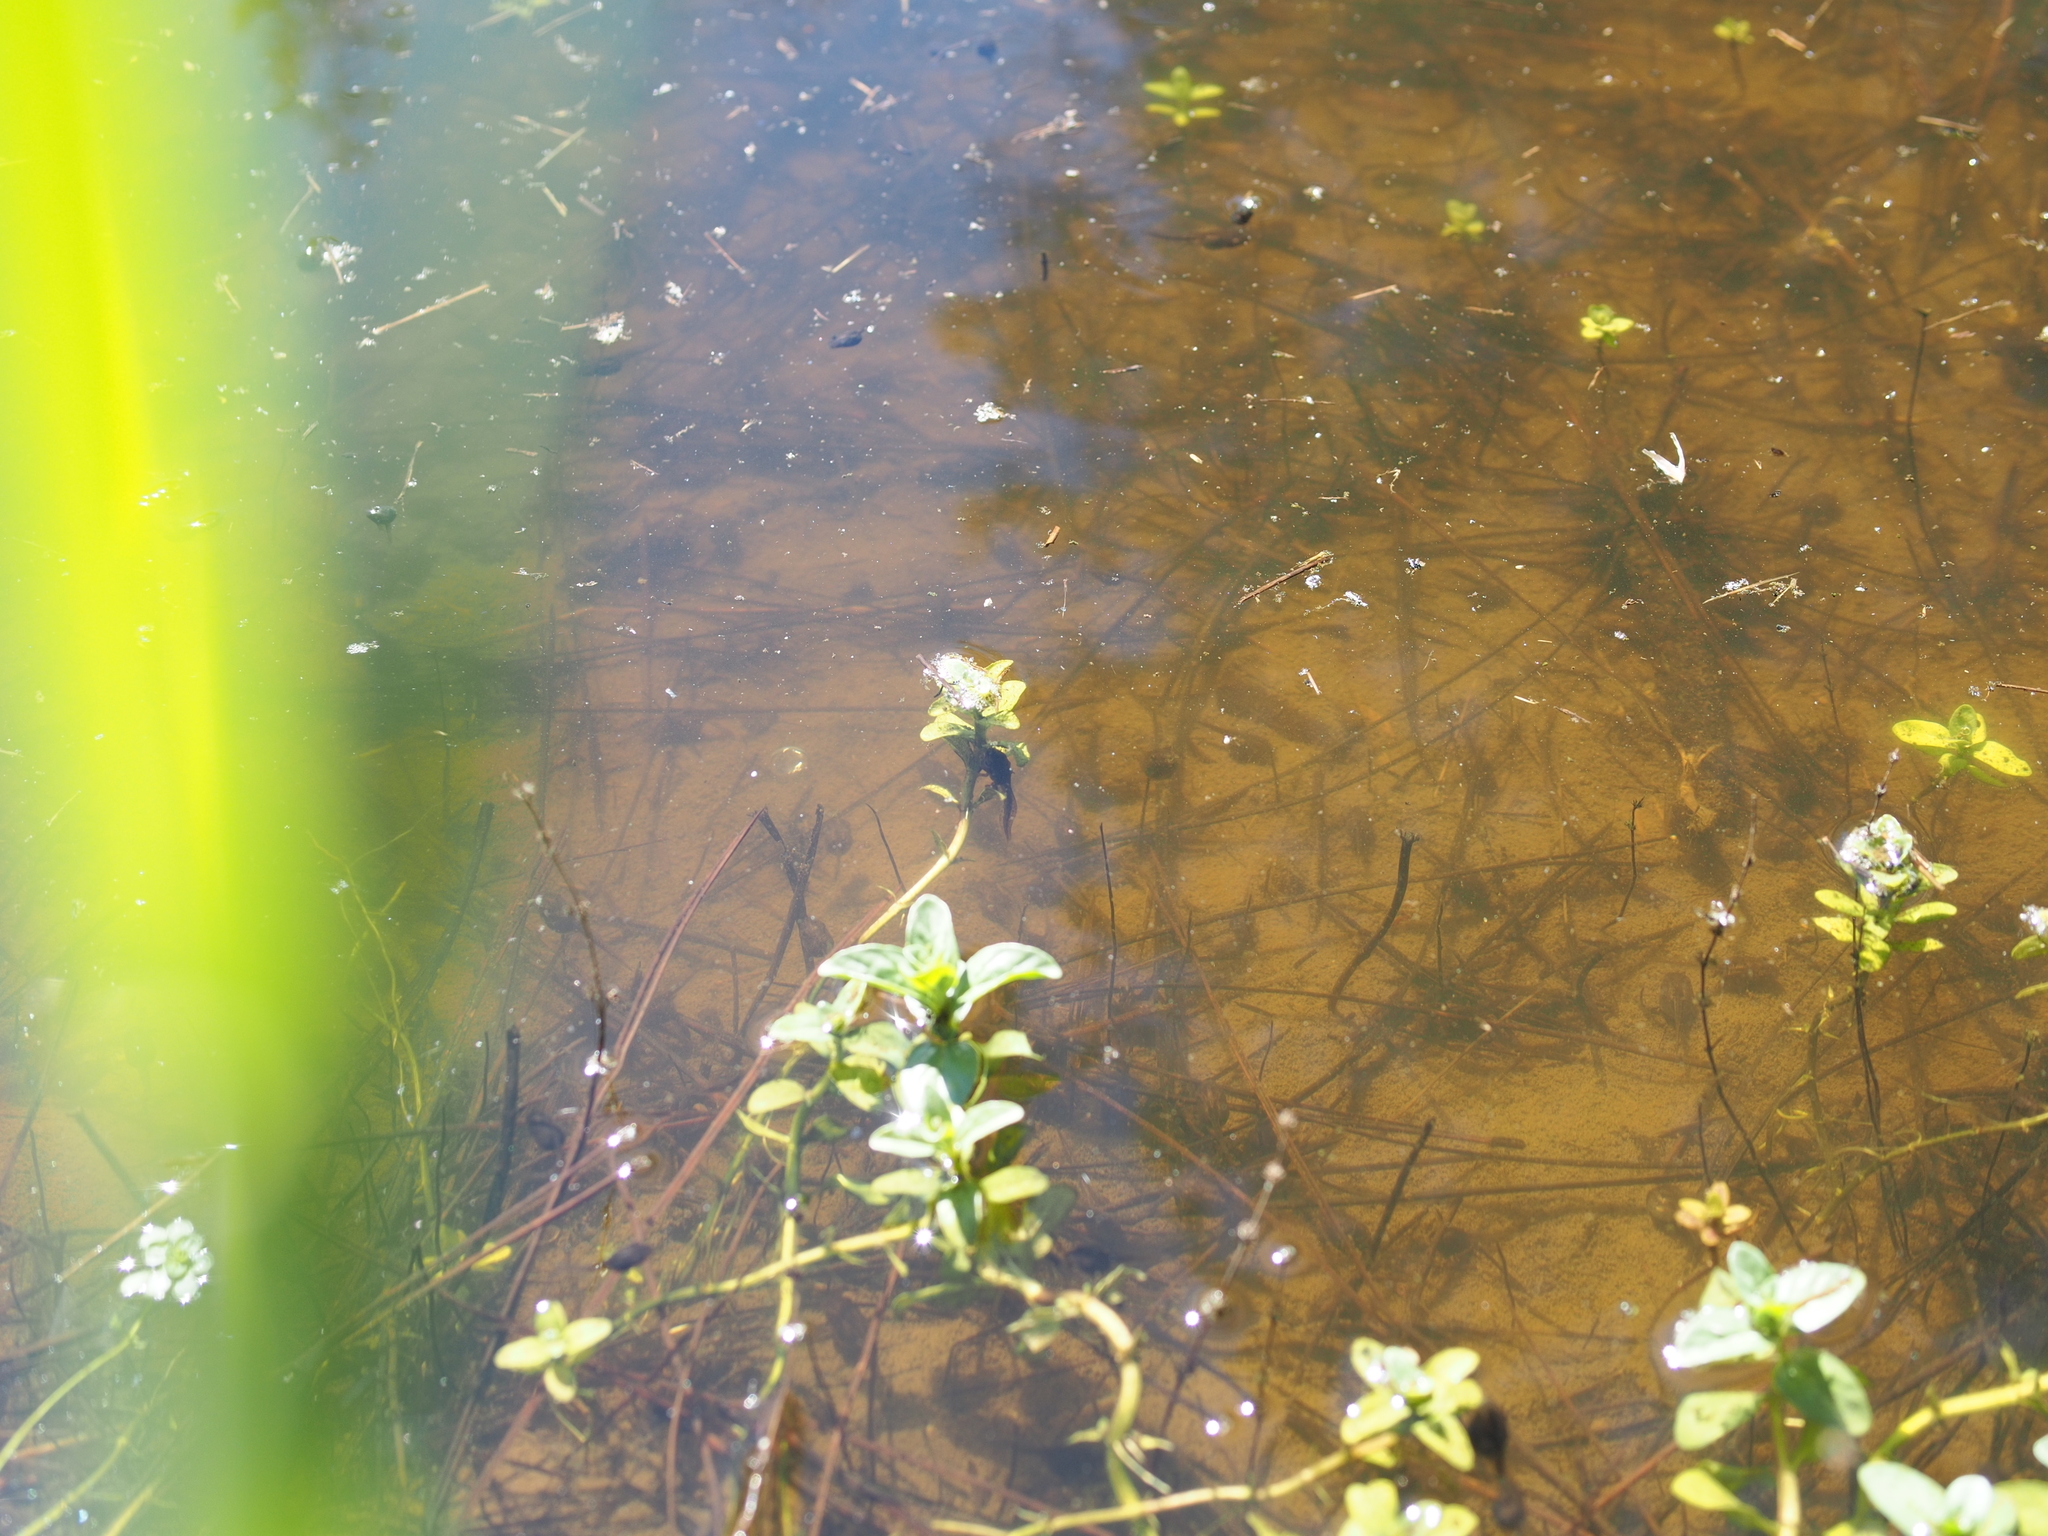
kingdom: Plantae
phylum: Tracheophyta
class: Magnoliopsida
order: Lamiales
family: Lamiaceae
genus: Mentha
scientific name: Mentha pulegium
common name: Pennyroyal
